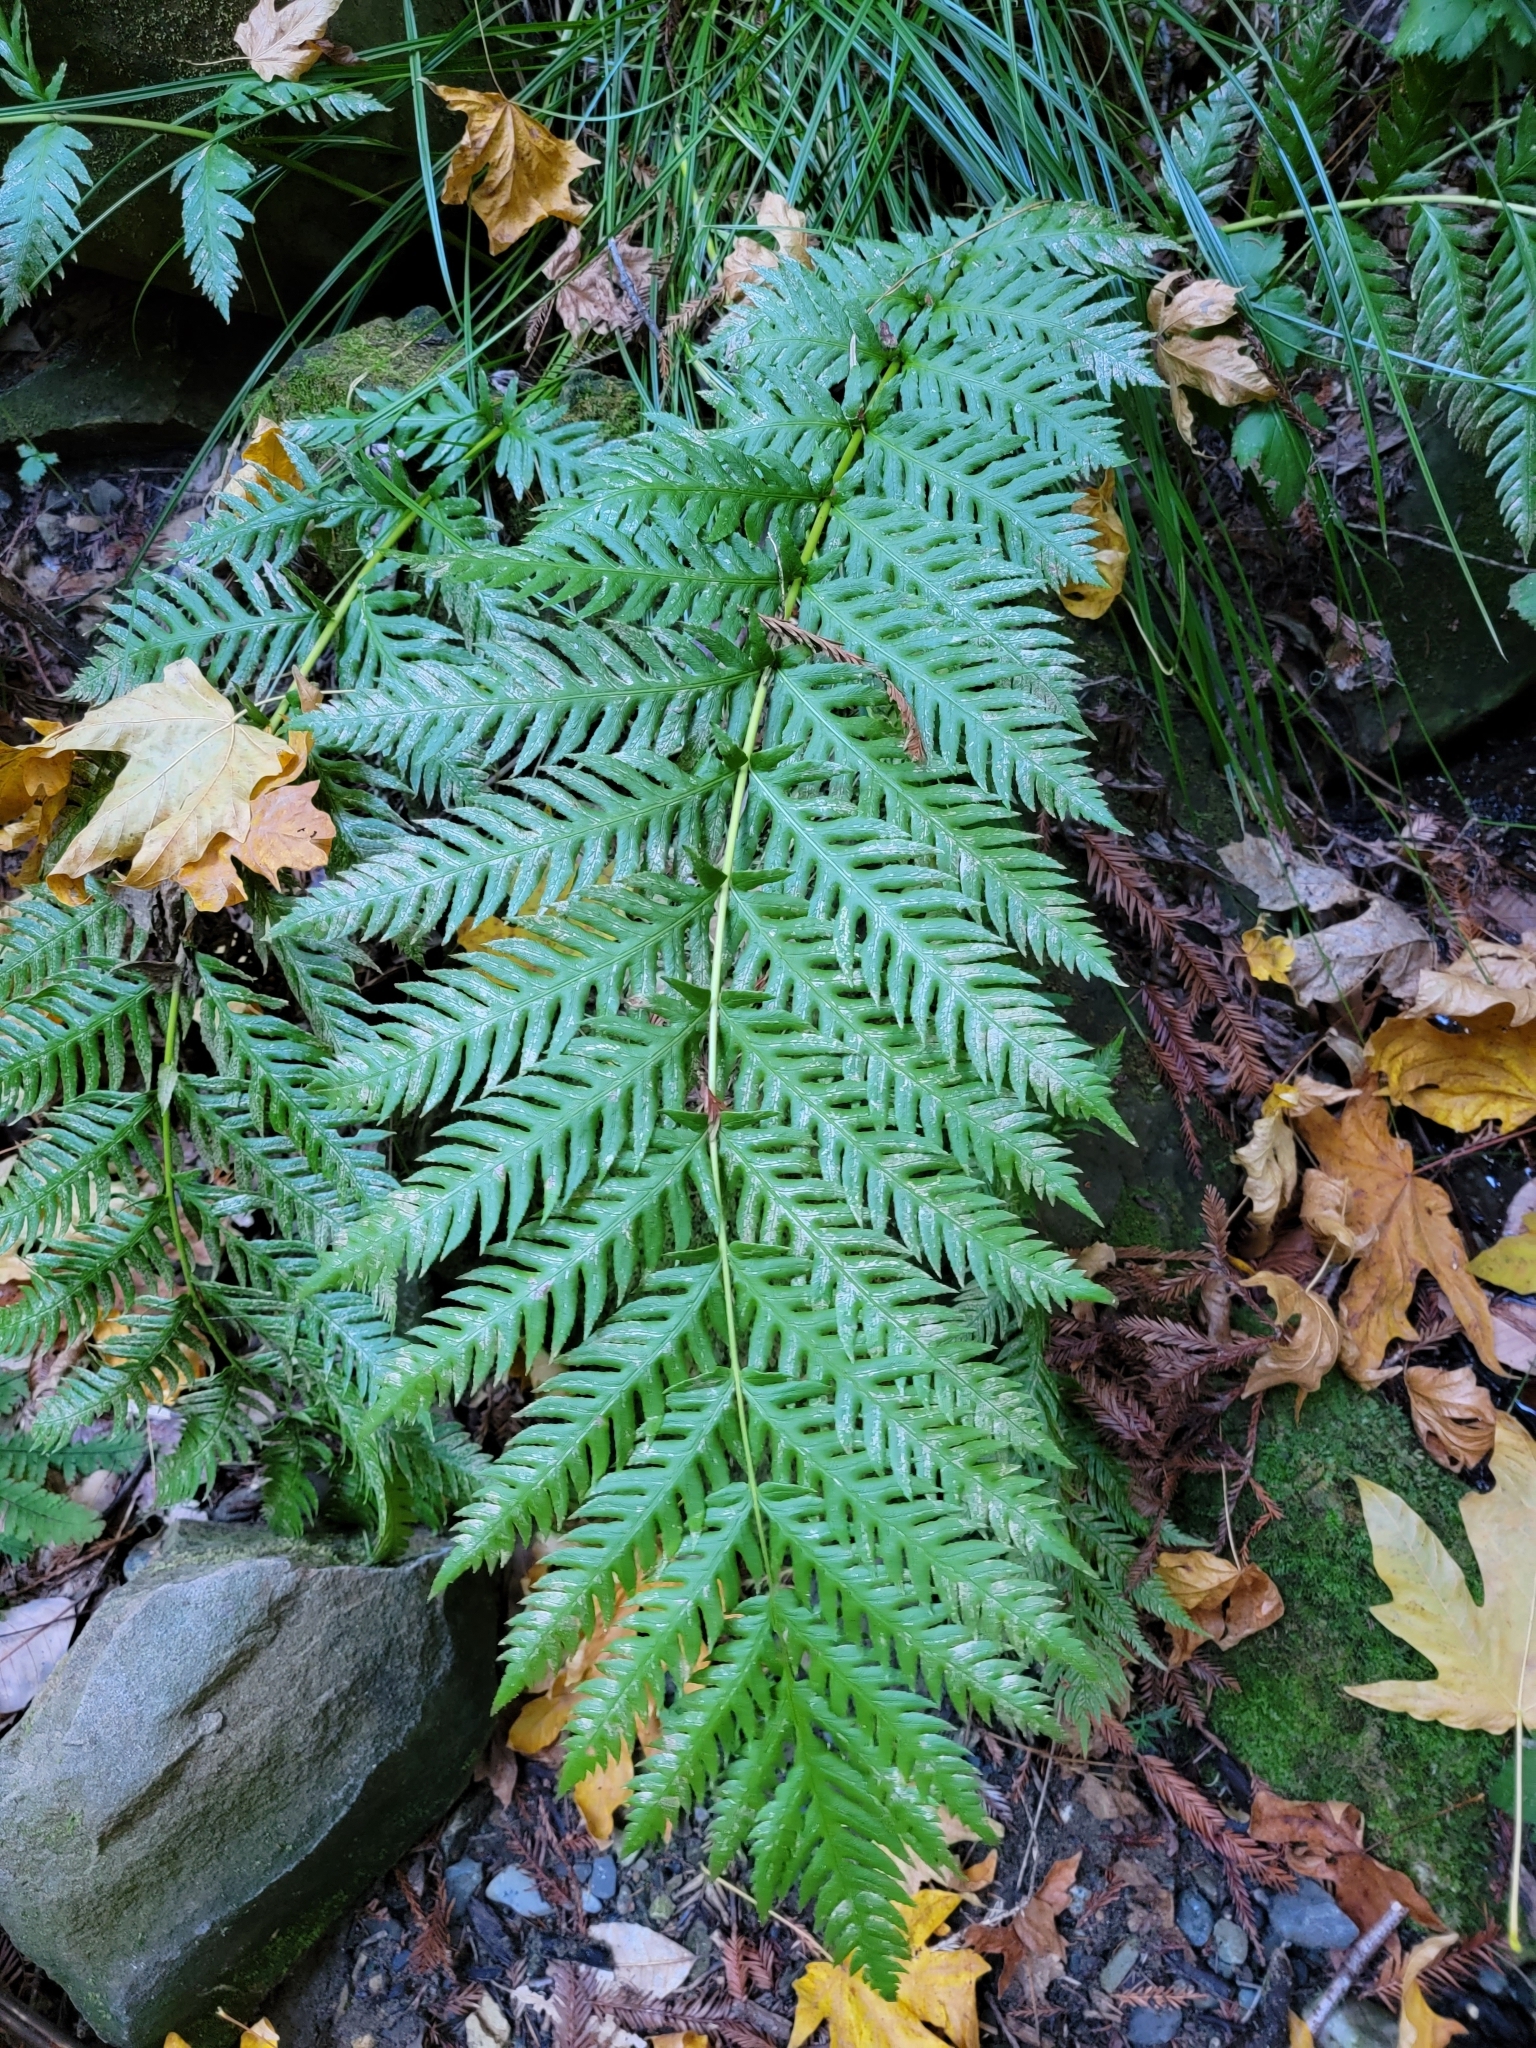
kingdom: Plantae
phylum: Tracheophyta
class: Polypodiopsida
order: Polypodiales
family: Blechnaceae
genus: Woodwardia
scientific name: Woodwardia fimbriata
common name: Giant chain fern
